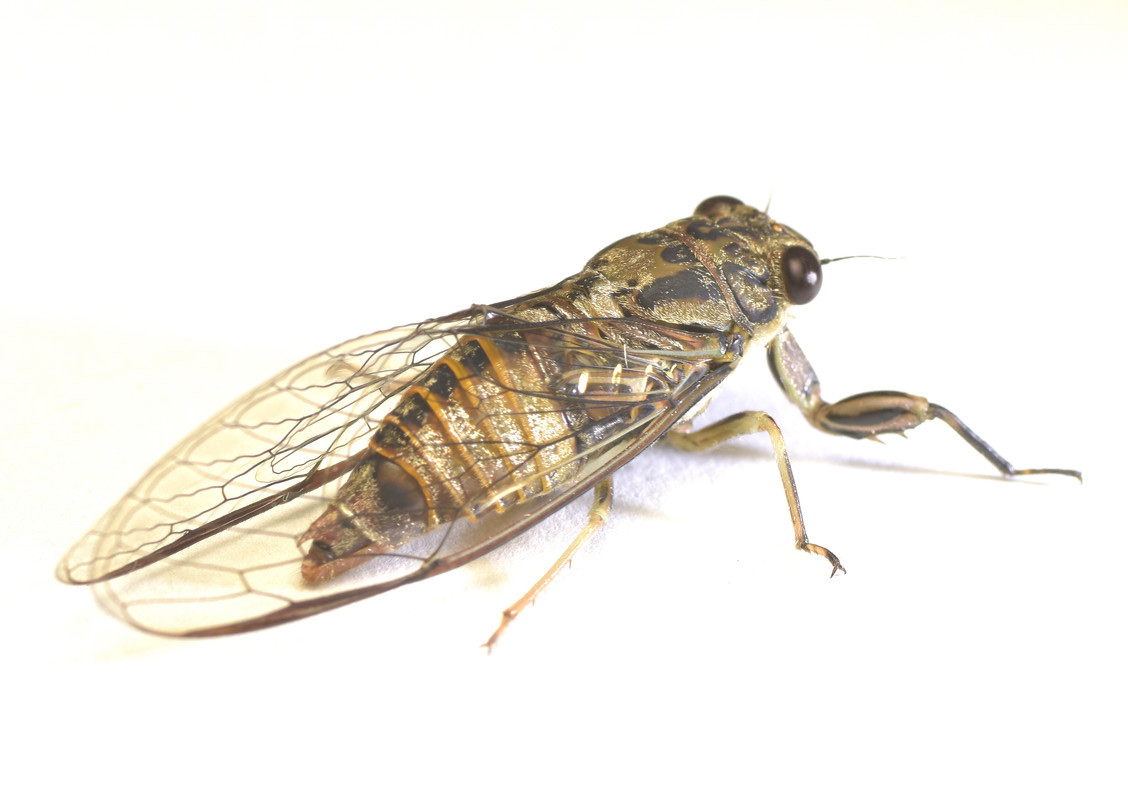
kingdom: Animalia
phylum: Arthropoda
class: Insecta
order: Hemiptera
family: Cicadidae
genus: Yoyetta
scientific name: Yoyetta celis
